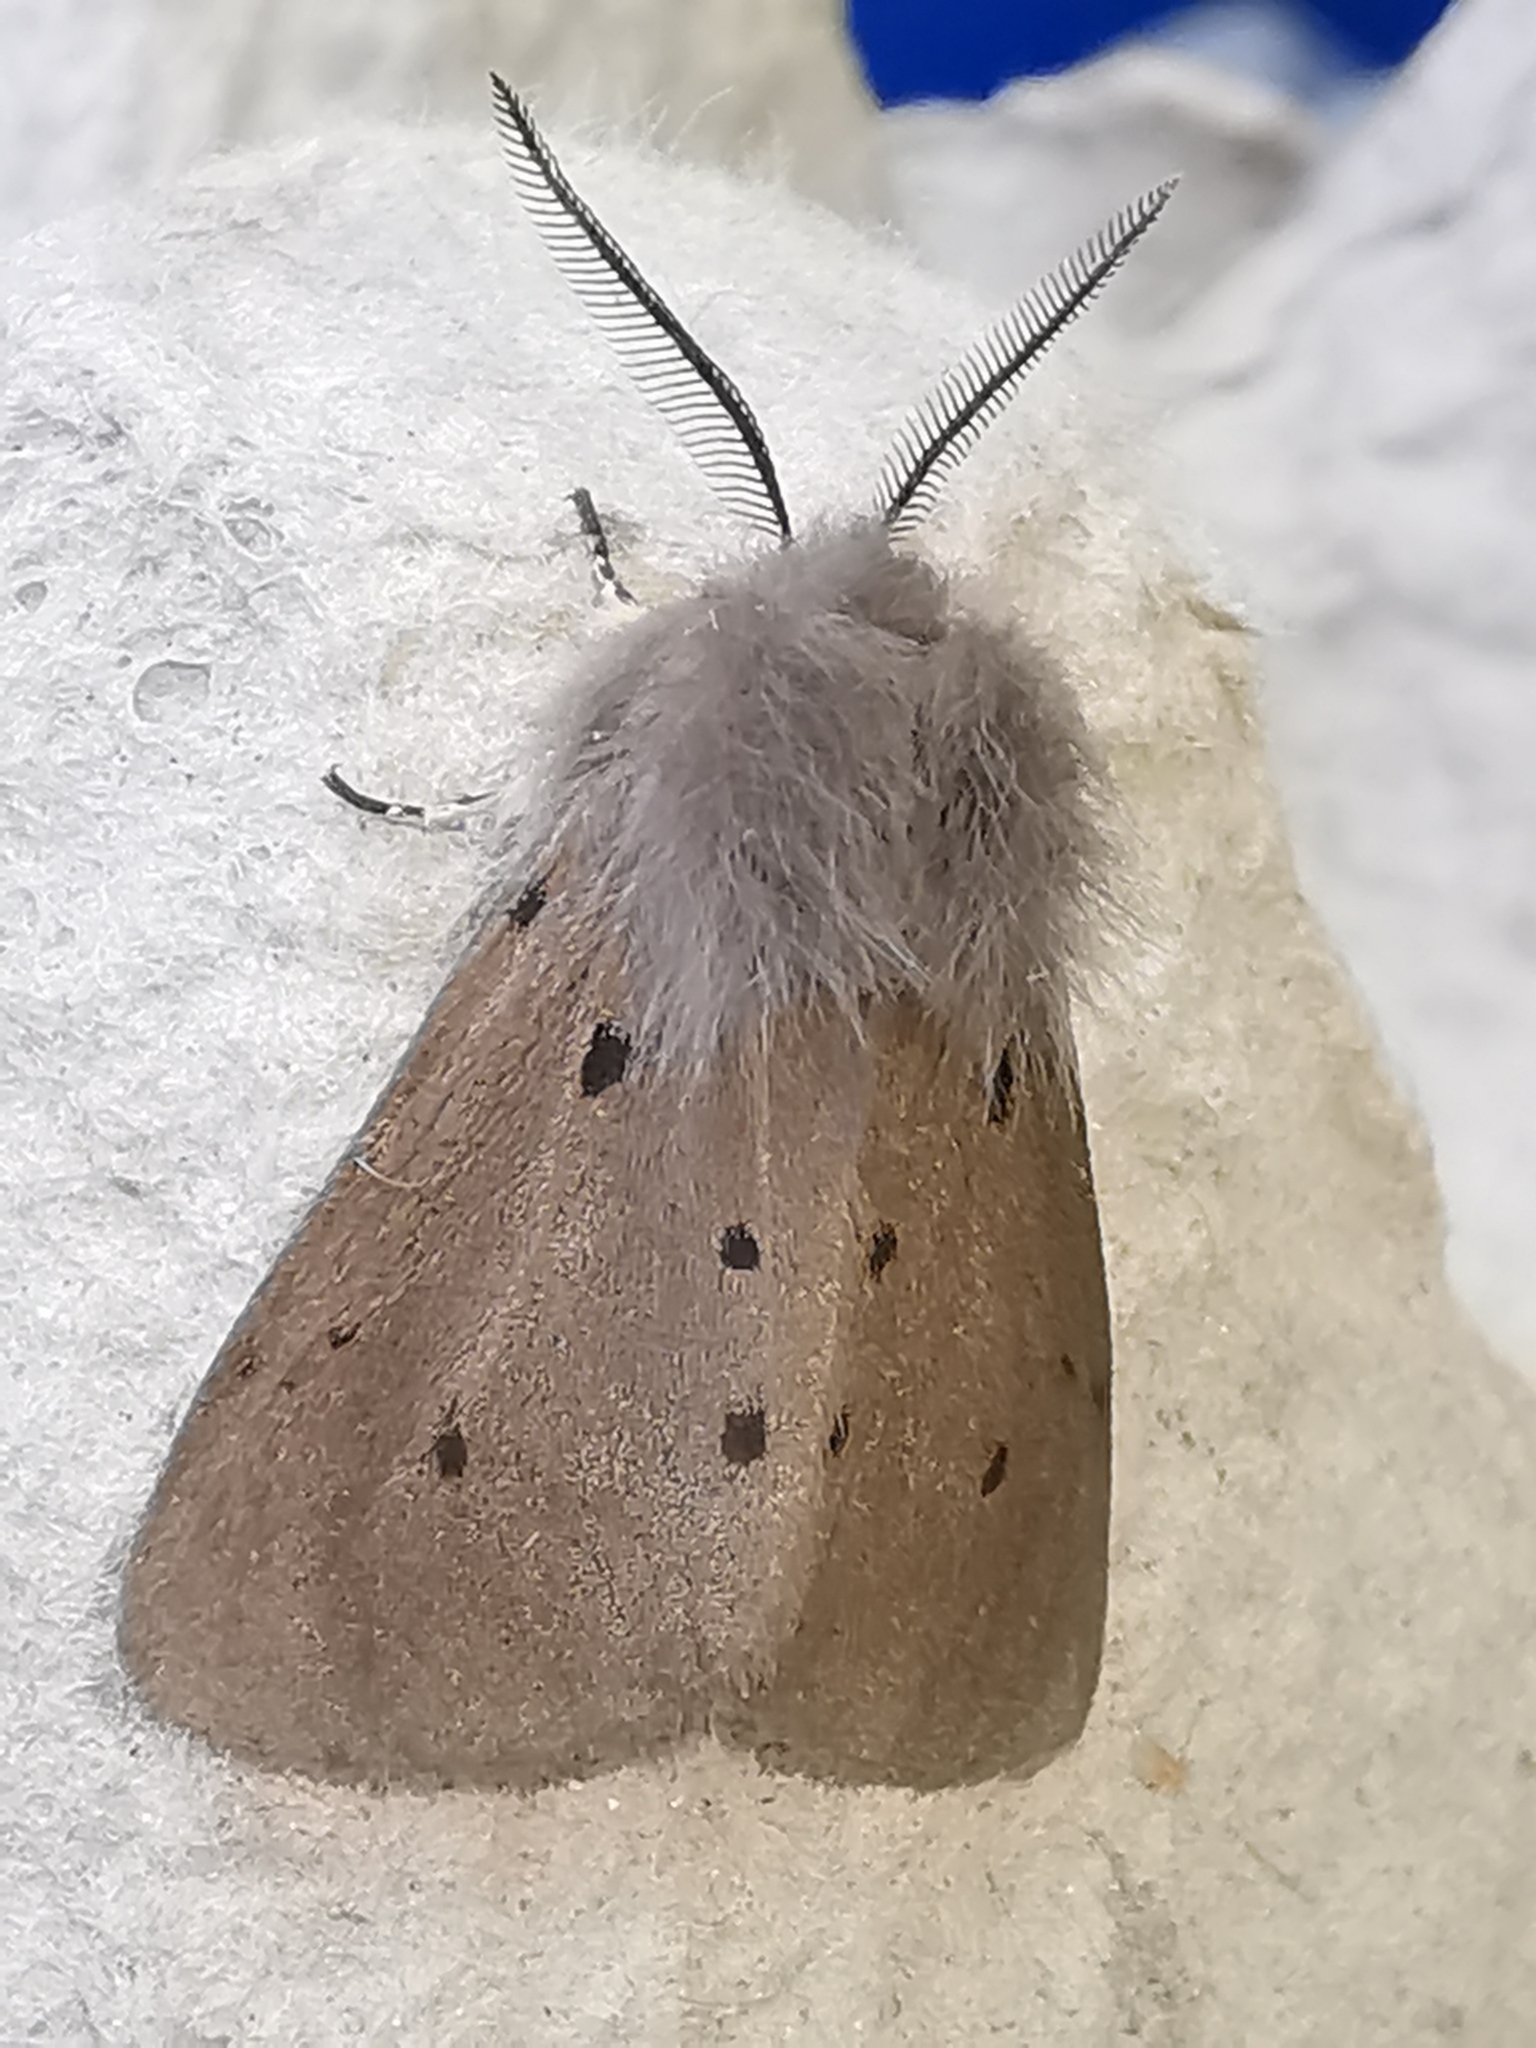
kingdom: Animalia
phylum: Arthropoda
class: Insecta
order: Lepidoptera
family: Erebidae
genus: Diaphora
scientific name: Diaphora mendica
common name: Muslin moth
